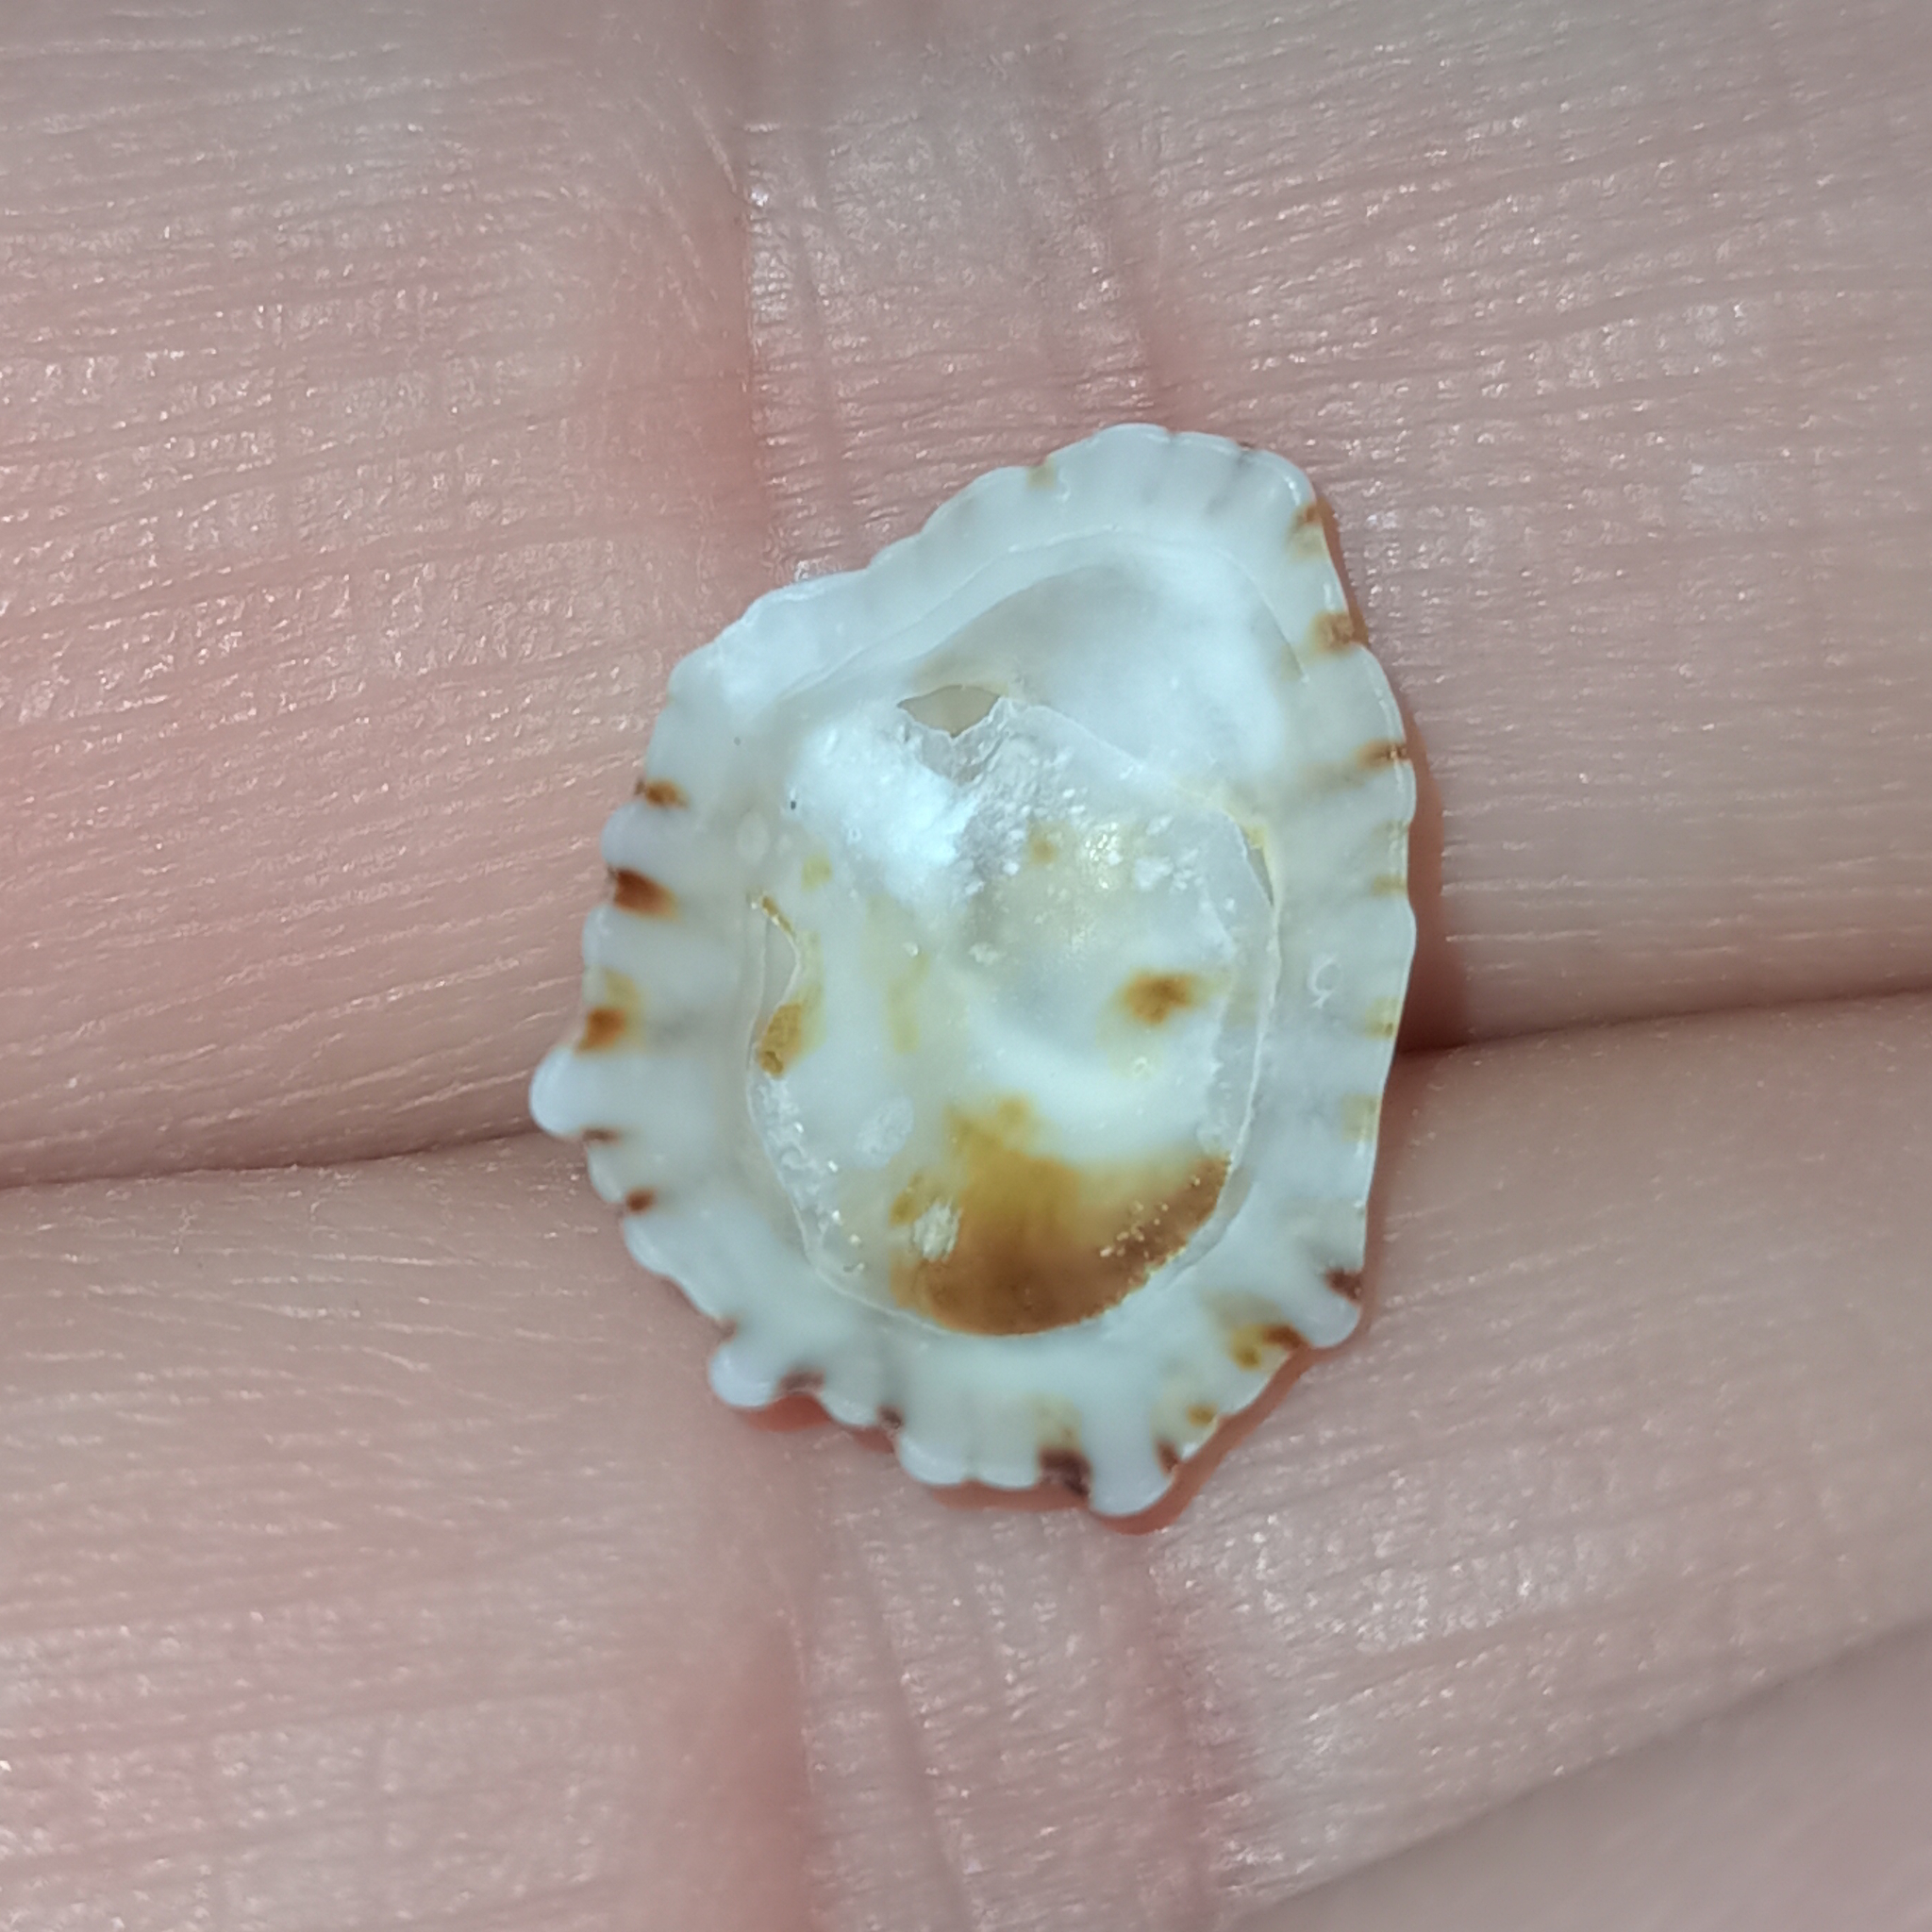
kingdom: Animalia
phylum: Mollusca
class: Gastropoda
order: Siphonariida
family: Siphonariidae
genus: Siphonaria
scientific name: Siphonaria hispida
